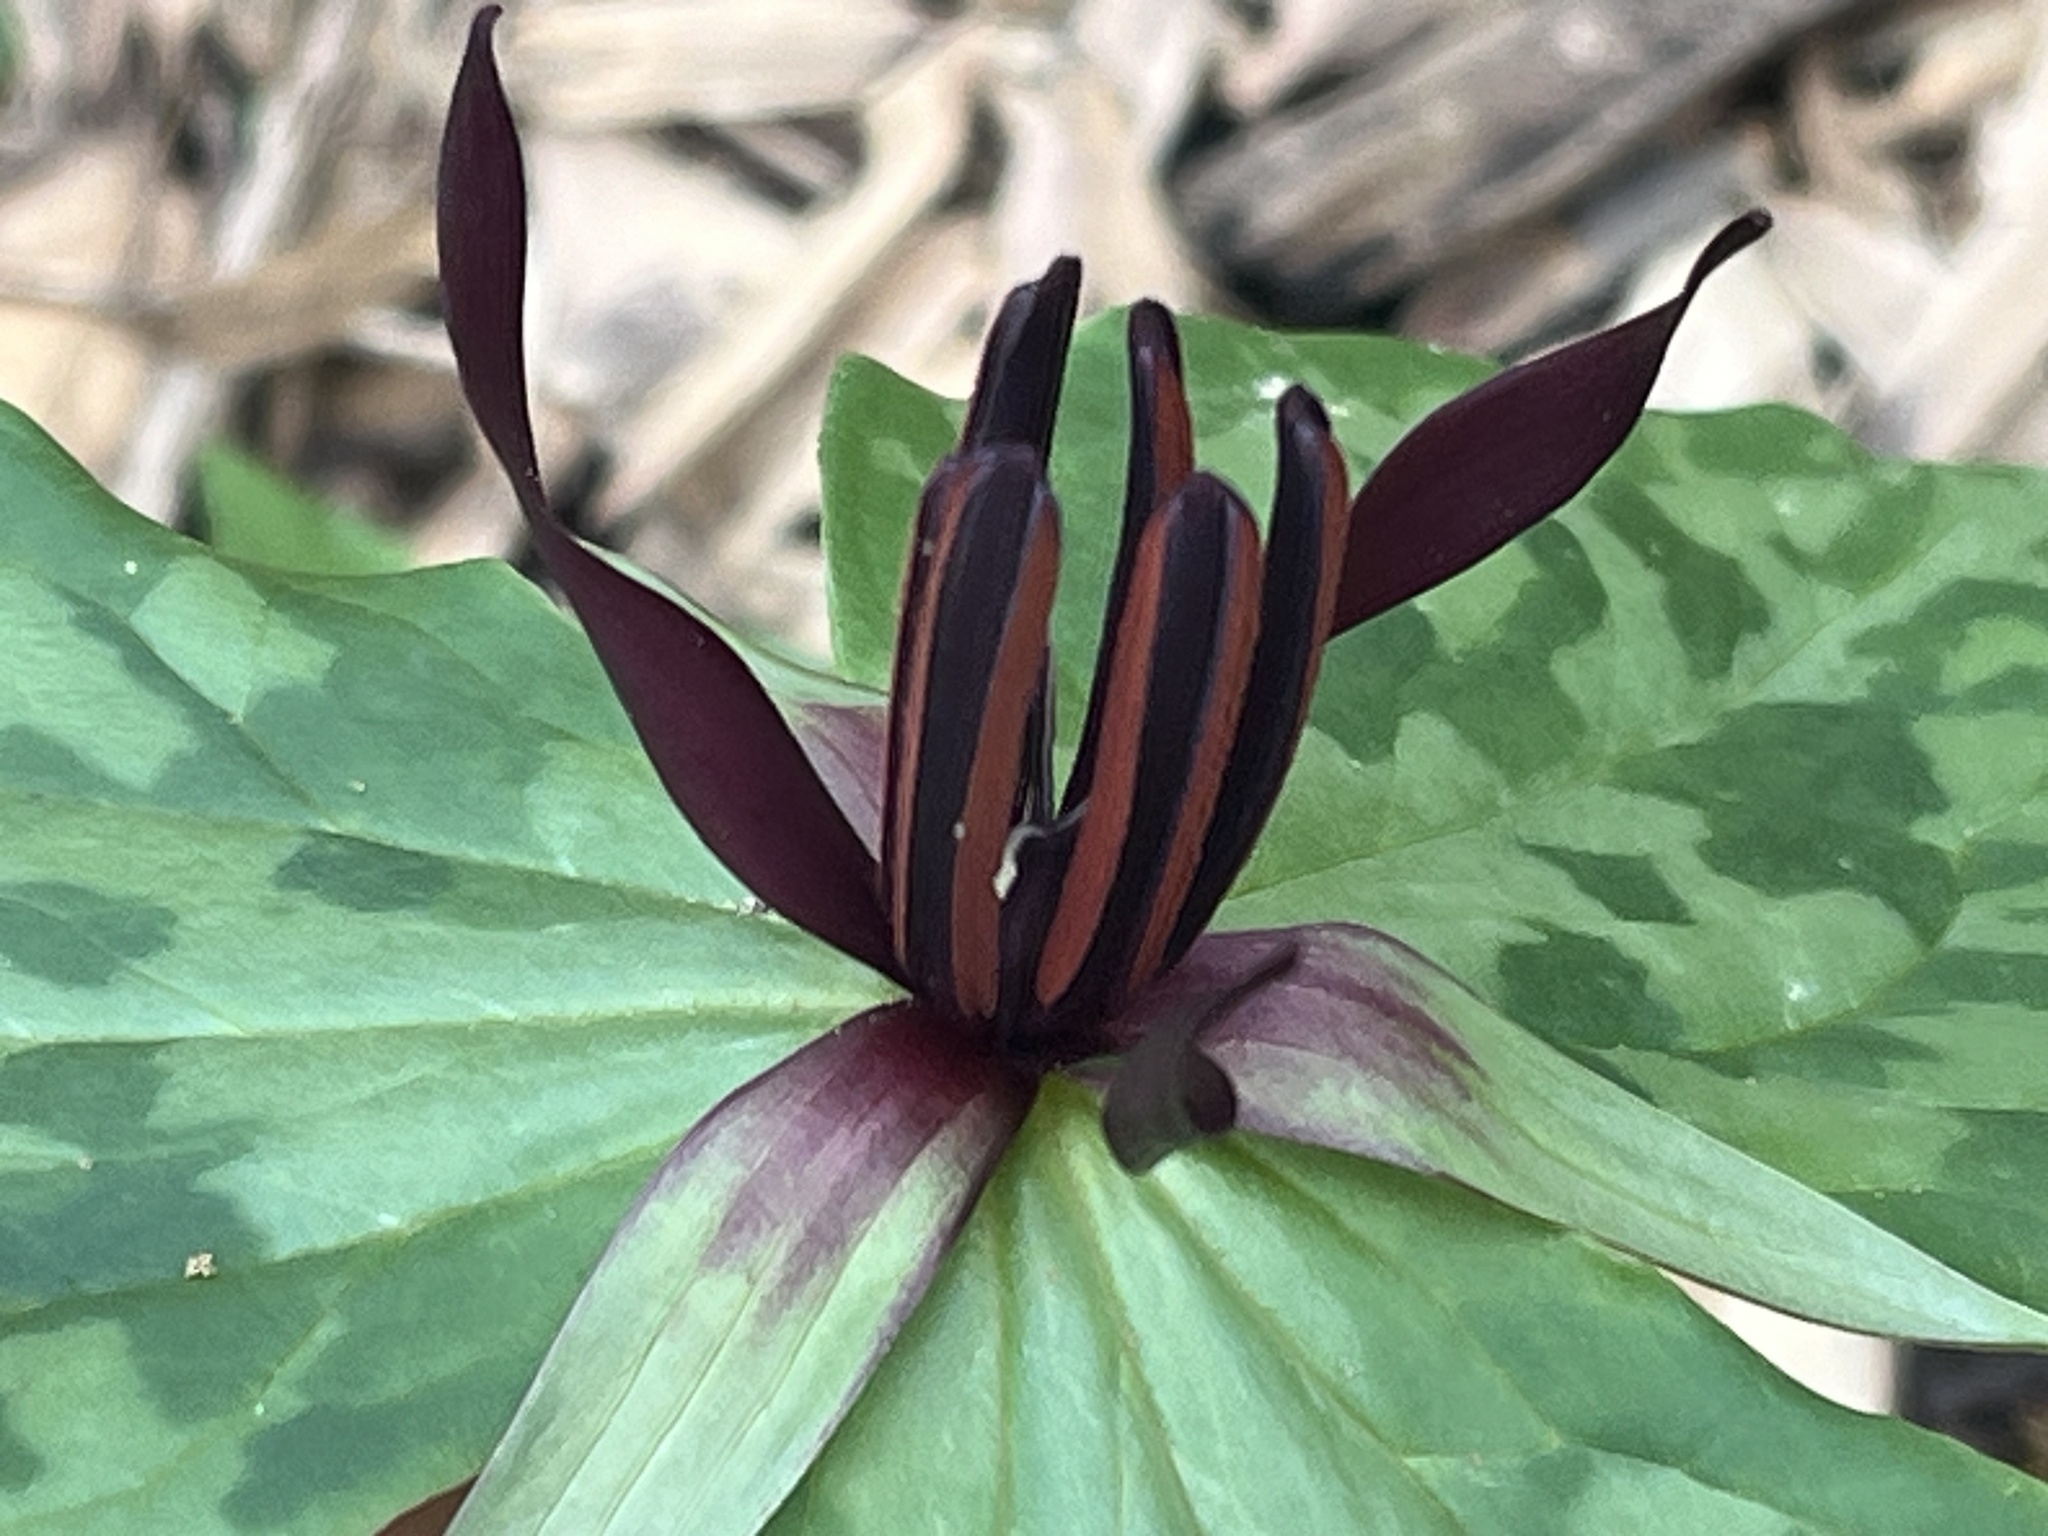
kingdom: Plantae
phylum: Tracheophyta
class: Liliopsida
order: Liliales
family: Melanthiaceae
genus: Trillium
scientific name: Trillium stamineum
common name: Blue ridge wakerobin
